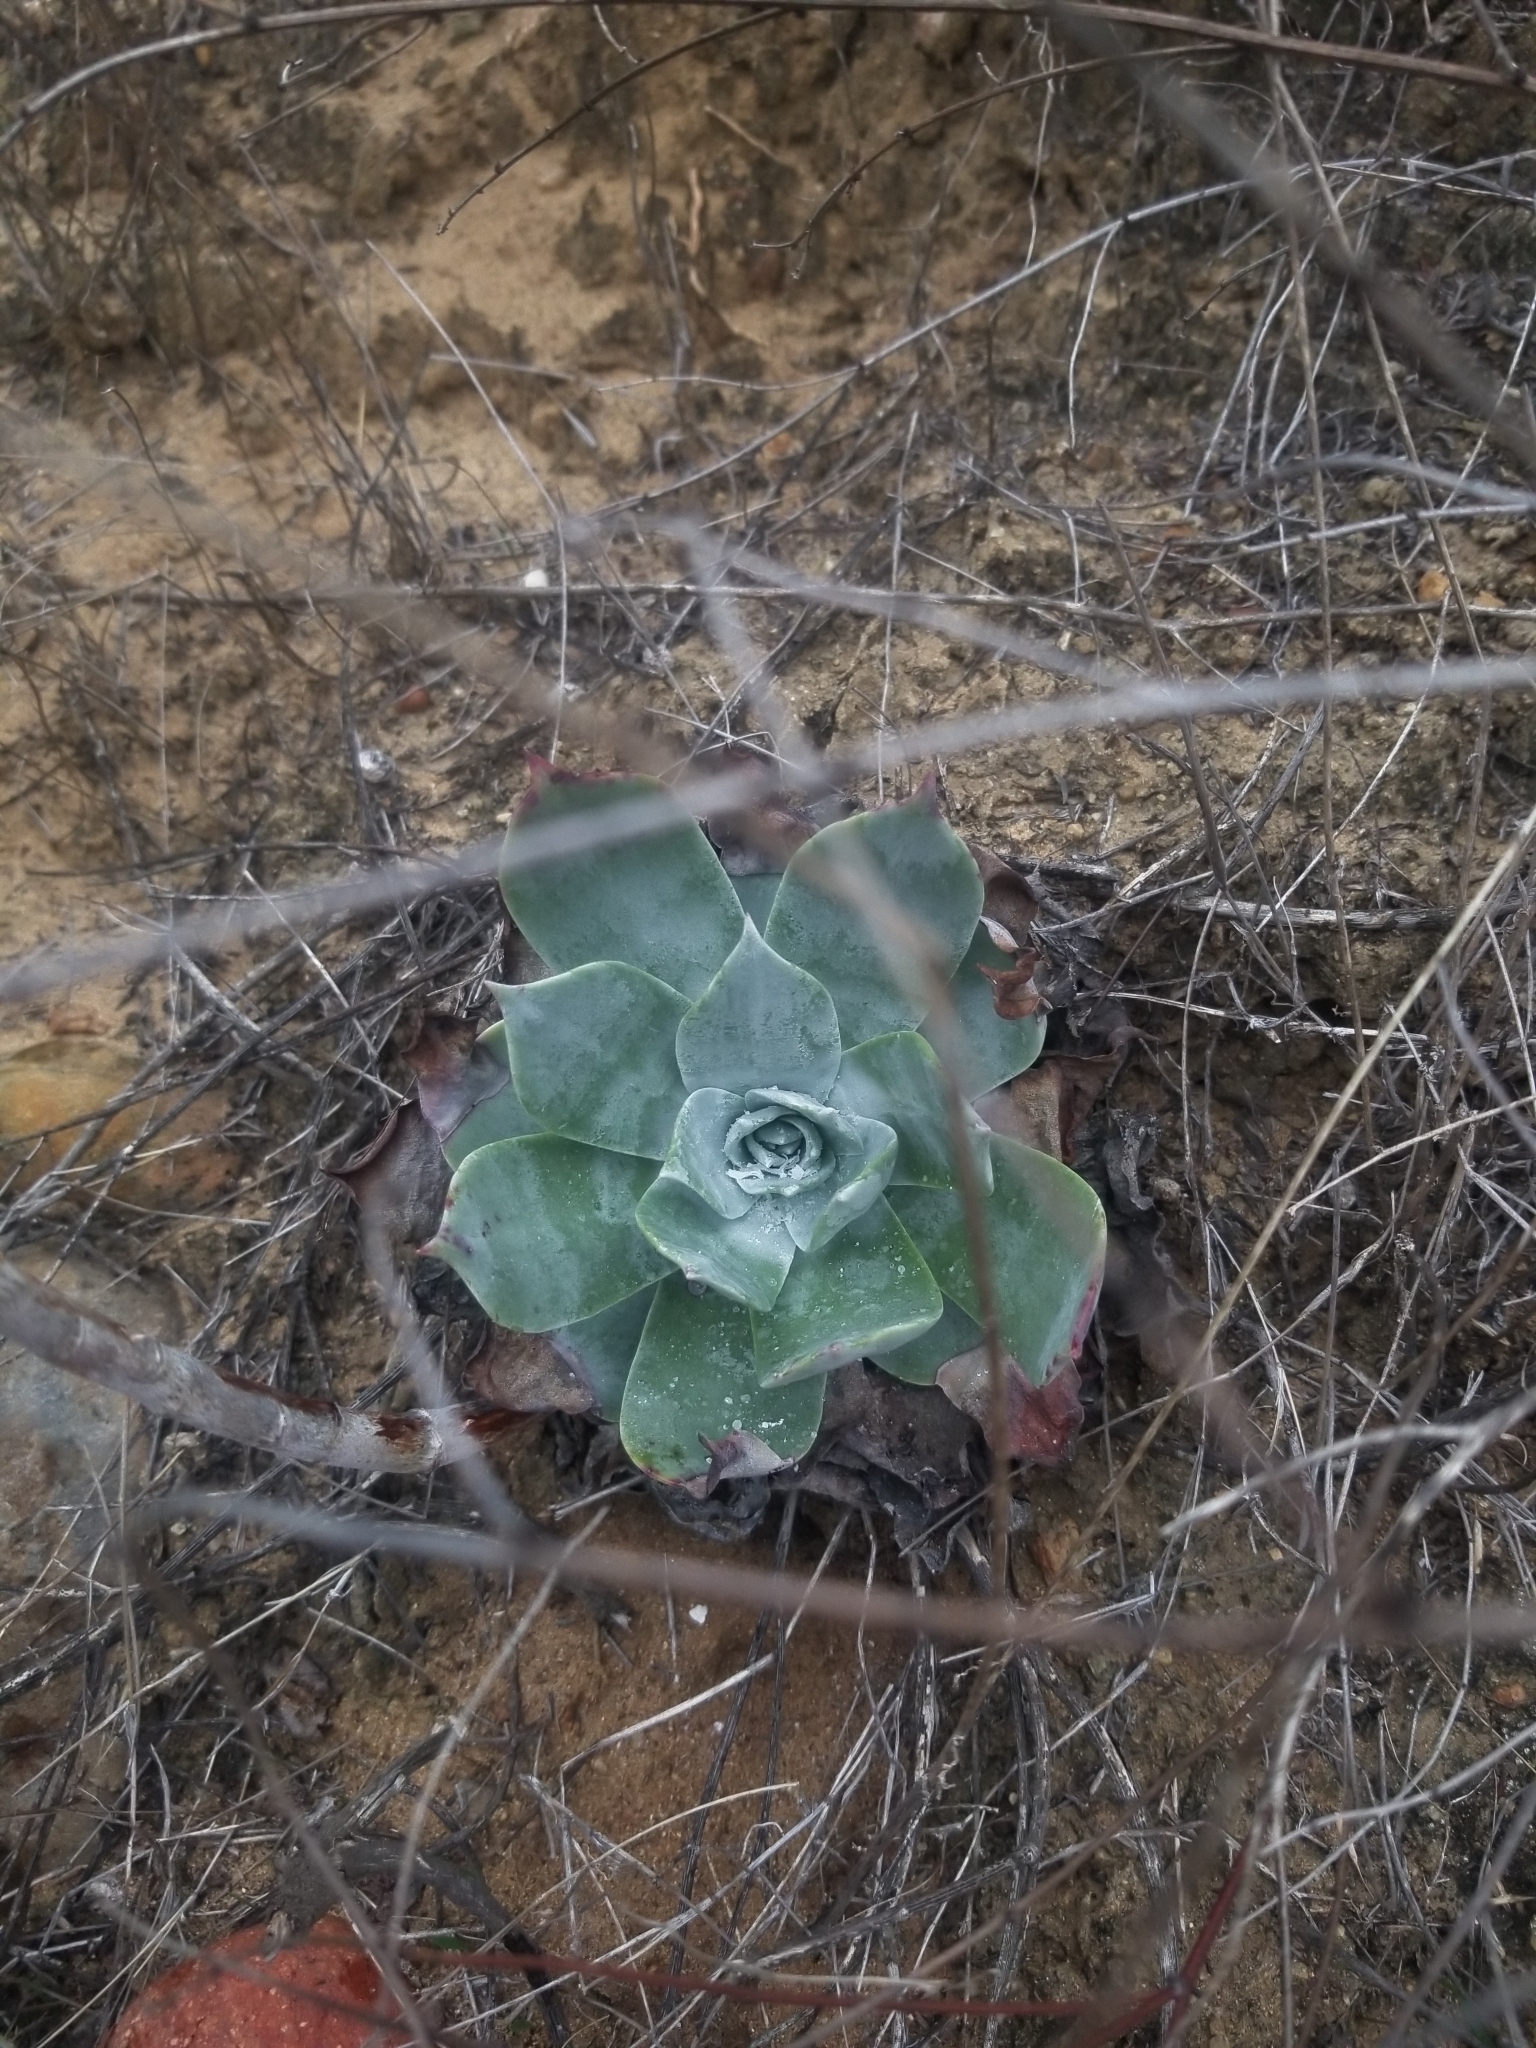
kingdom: Plantae
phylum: Tracheophyta
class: Magnoliopsida
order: Saxifragales
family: Crassulaceae
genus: Dudleya
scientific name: Dudleya pulverulenta
